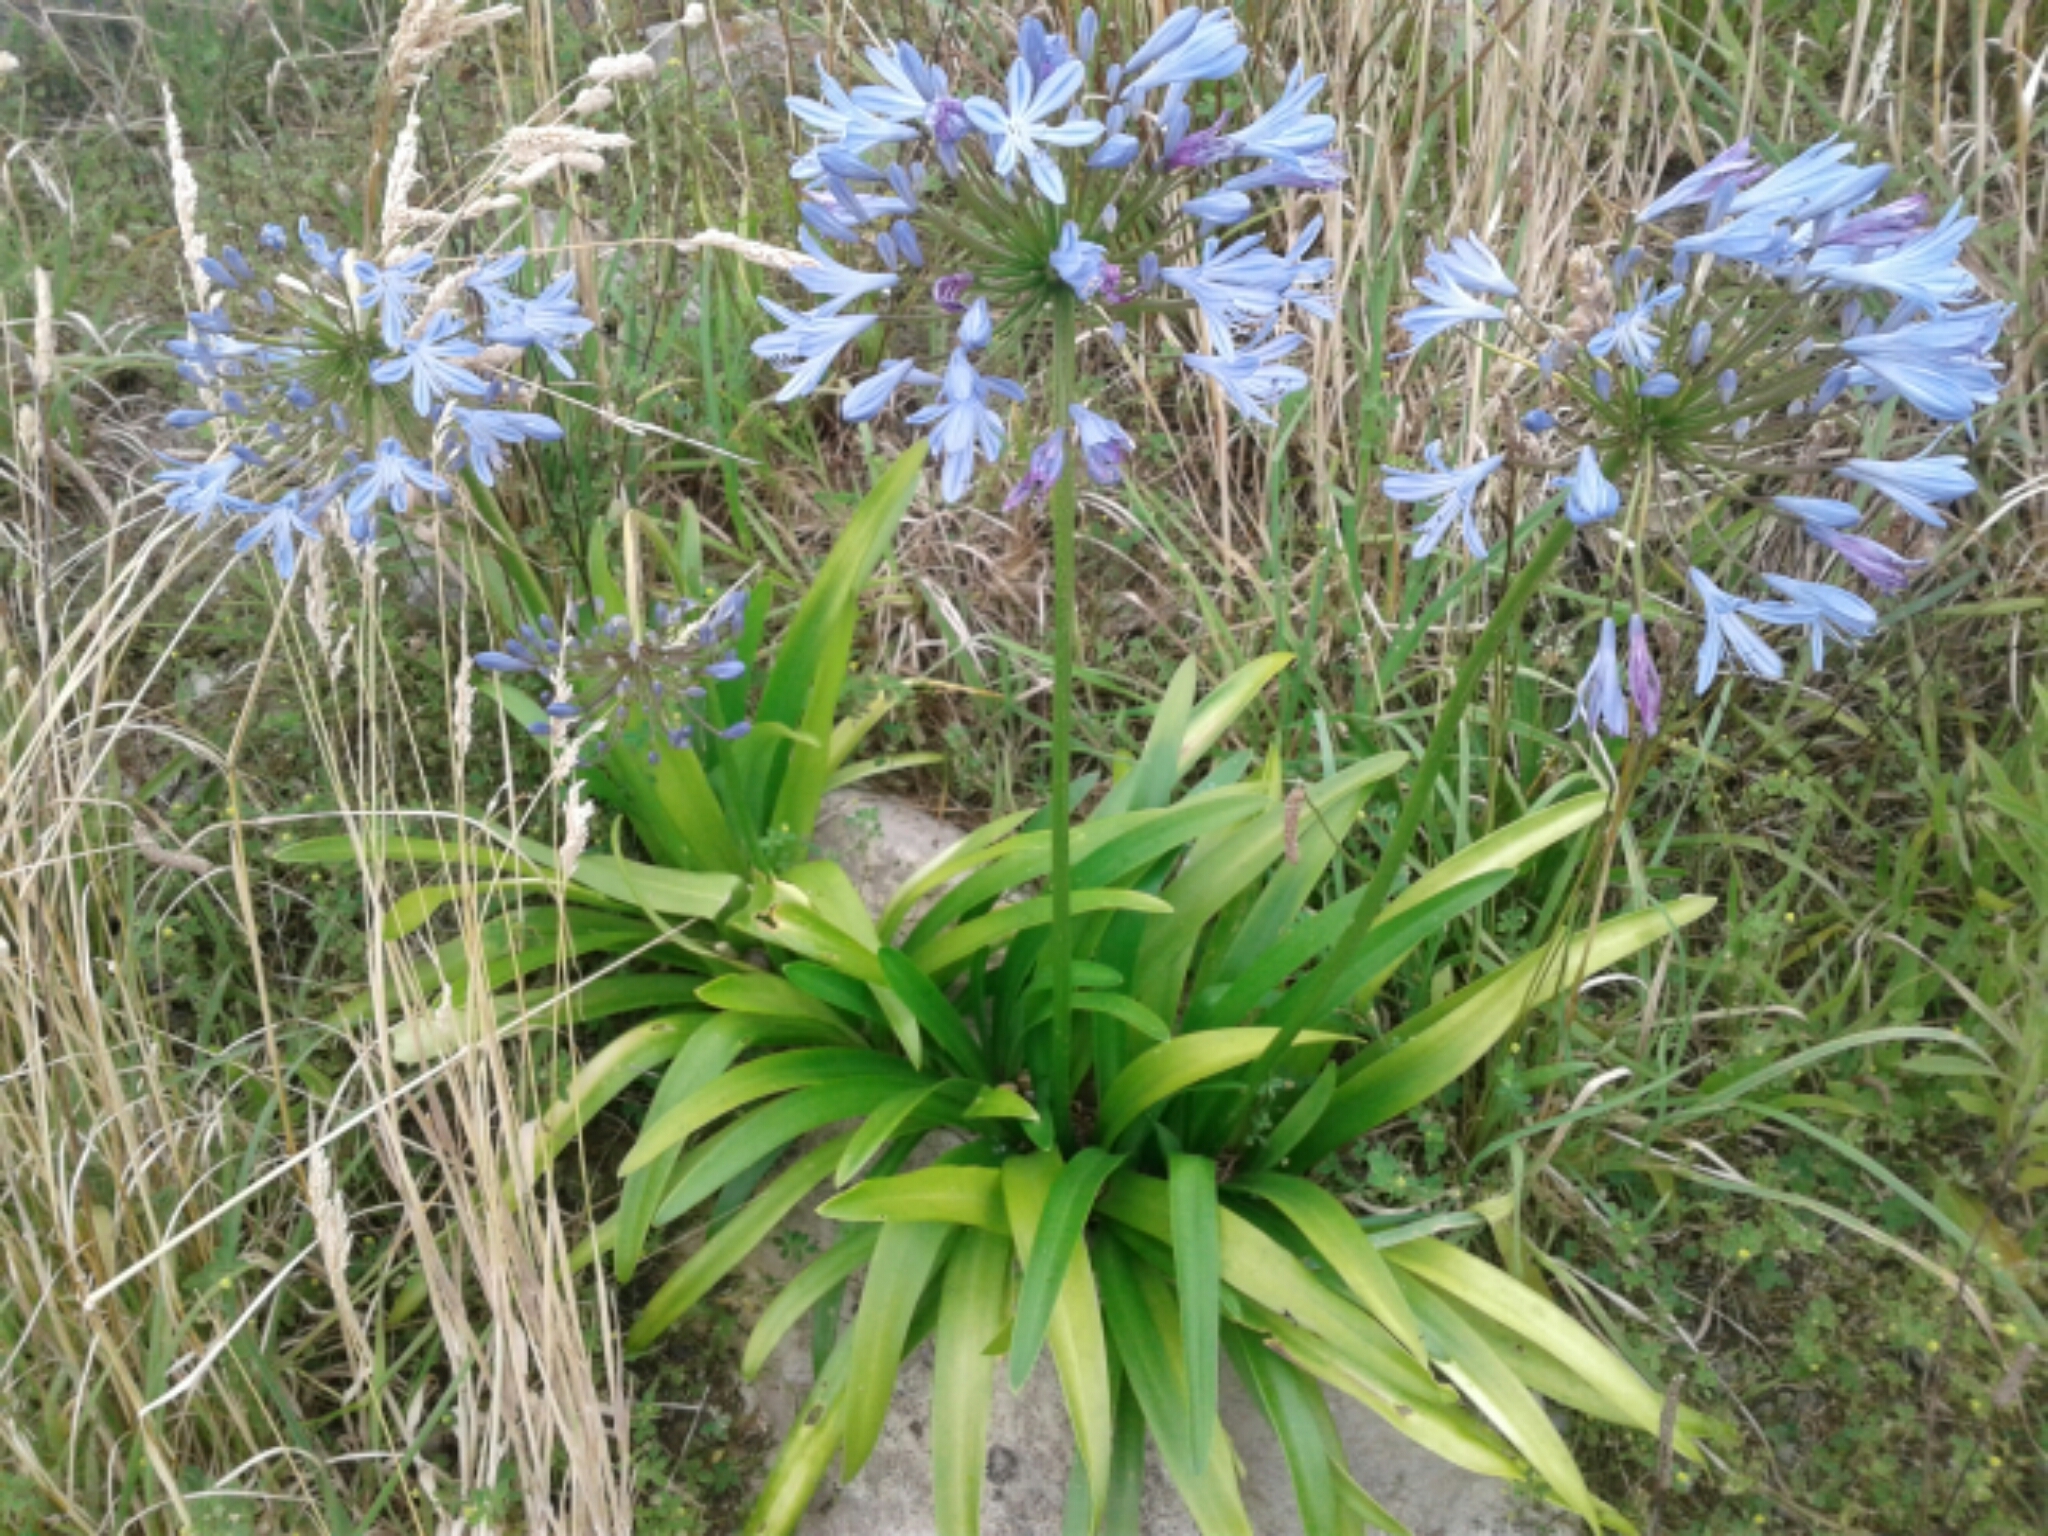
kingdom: Plantae
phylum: Tracheophyta
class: Liliopsida
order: Asparagales
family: Amaryllidaceae
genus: Agapanthus
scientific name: Agapanthus praecox
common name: African-lily
